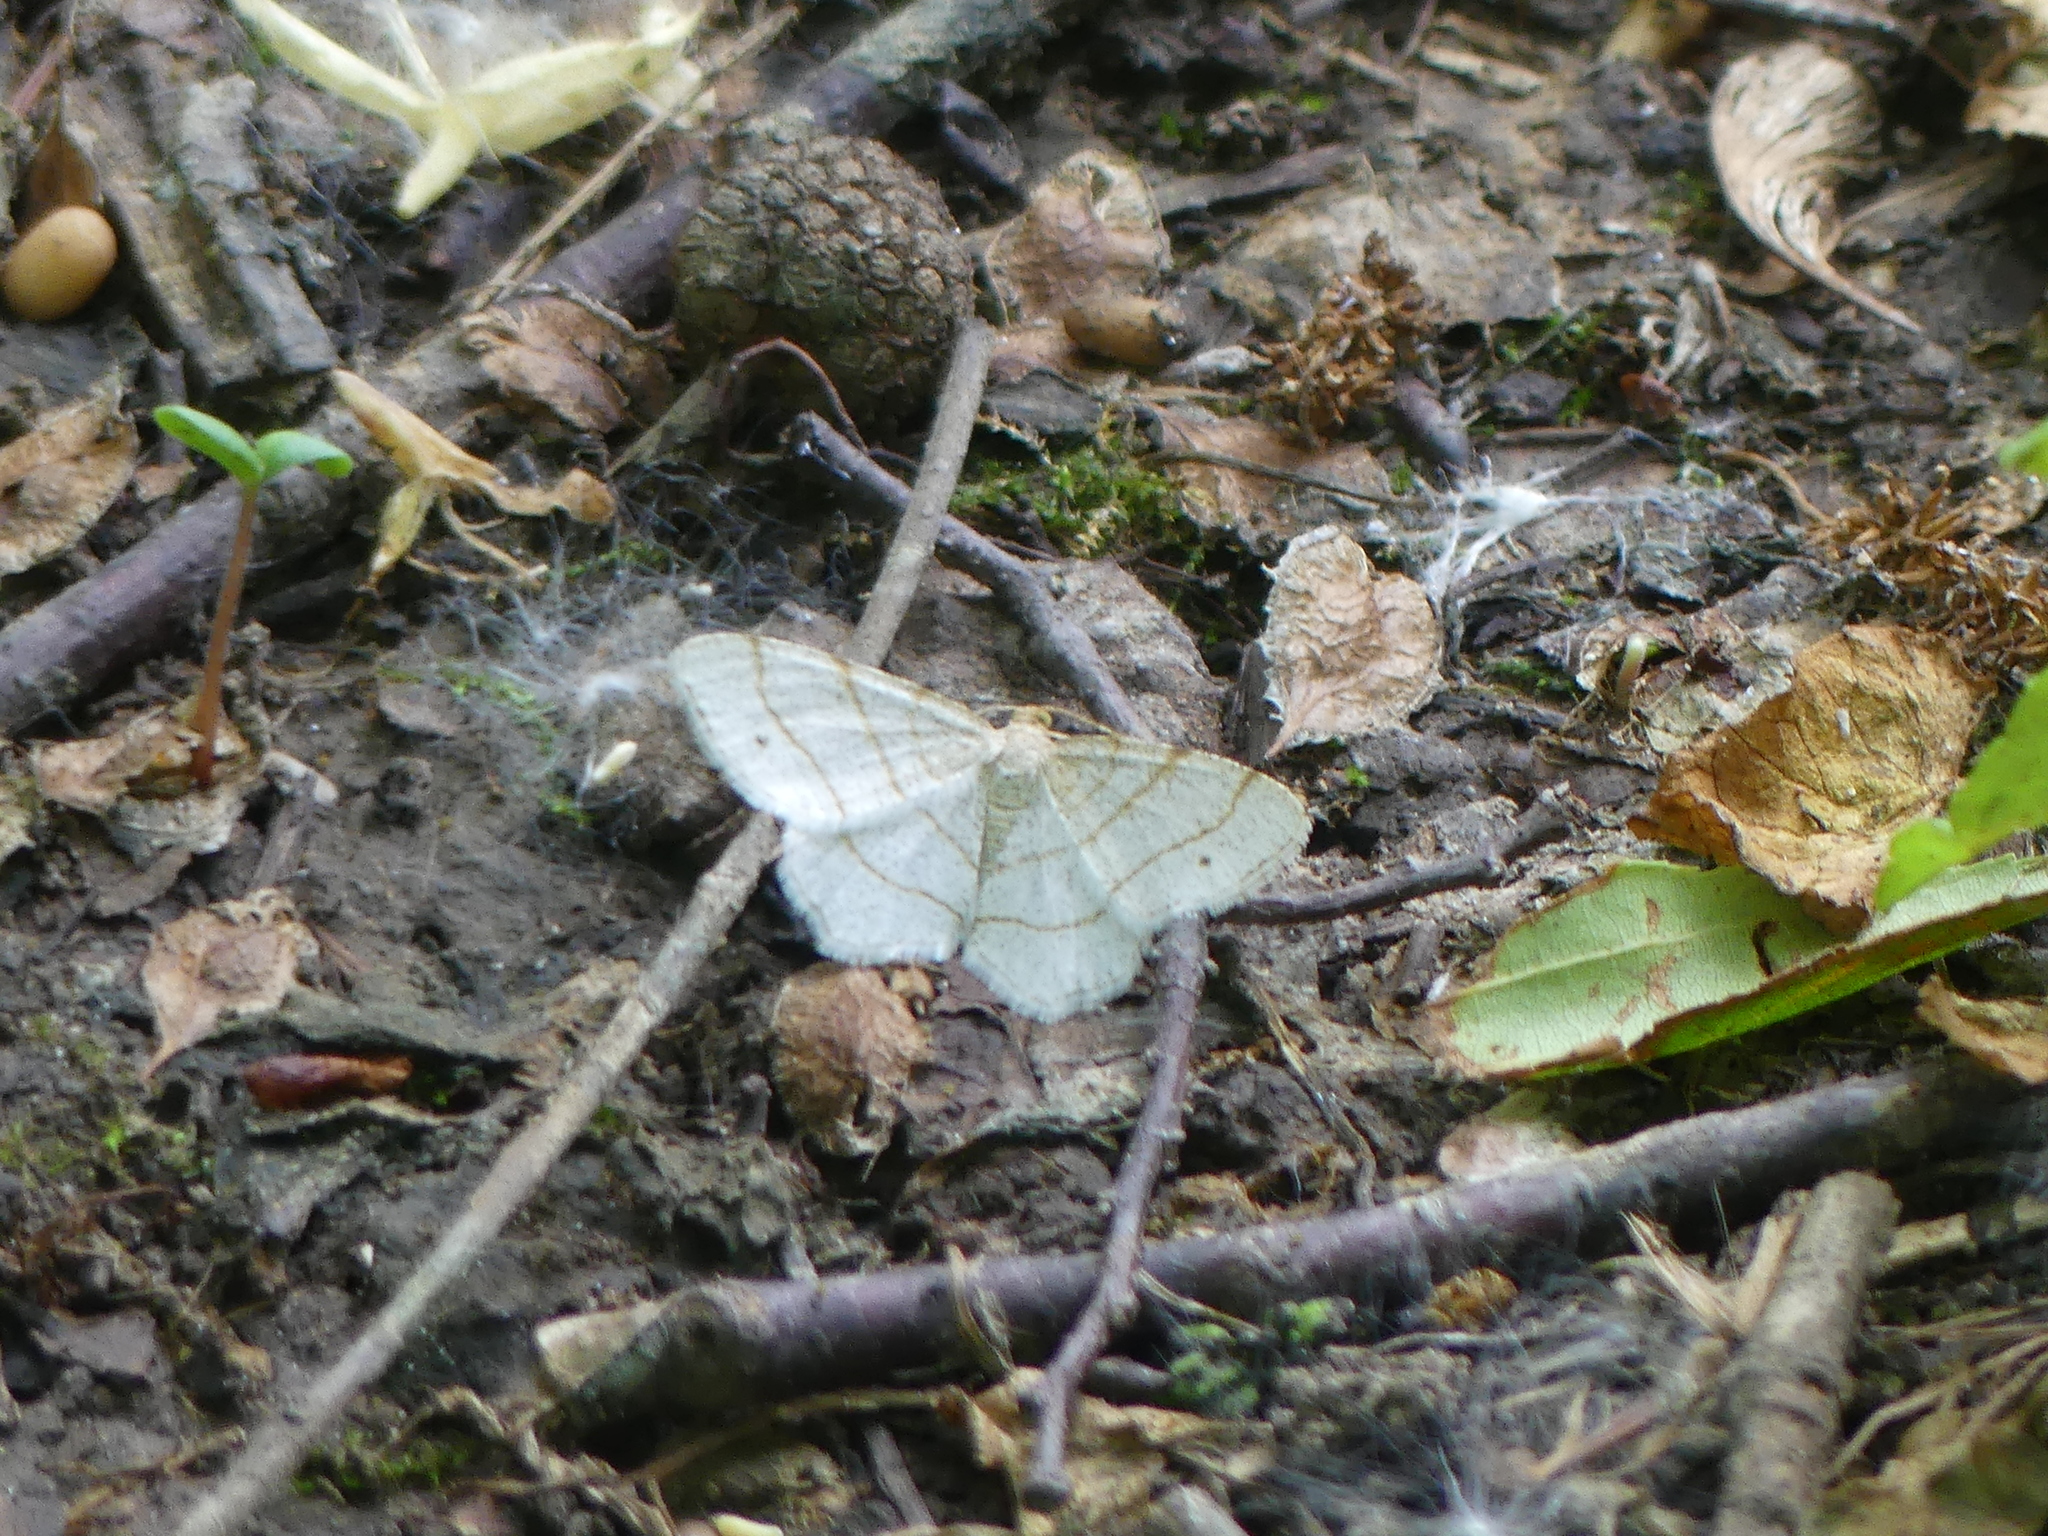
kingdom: Animalia
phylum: Arthropoda
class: Insecta
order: Lepidoptera
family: Geometridae
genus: Trigrammia
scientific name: Trigrammia quadrinotaria
